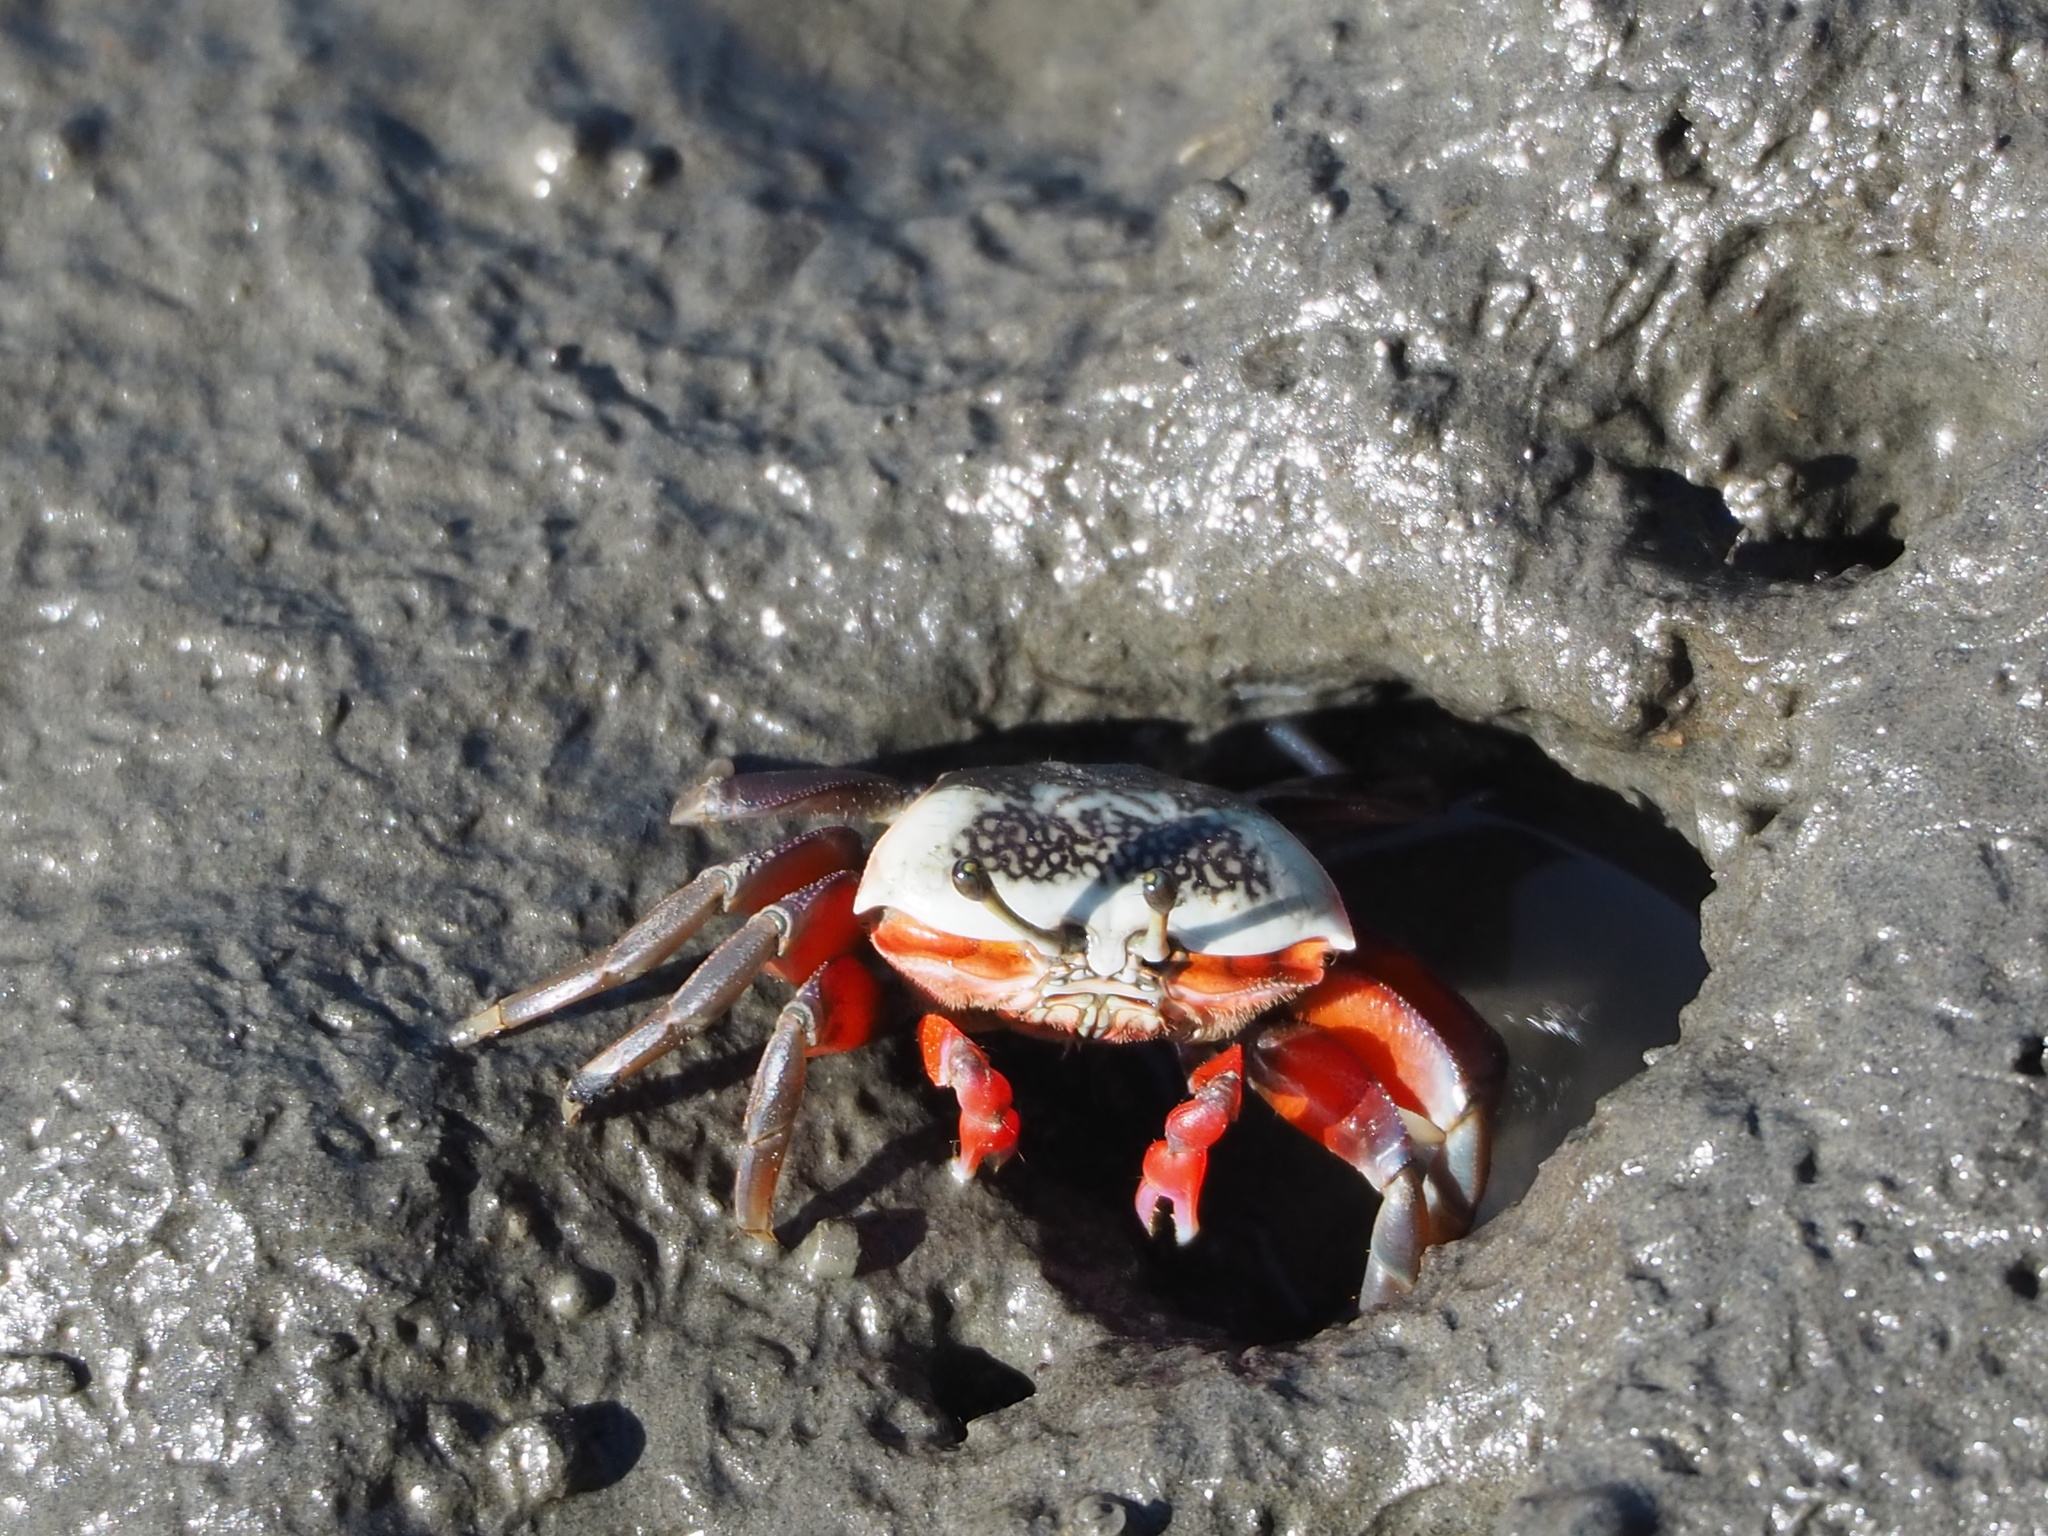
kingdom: Animalia
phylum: Arthropoda
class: Malacostraca
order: Decapoda
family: Ocypodidae
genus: Tubuca
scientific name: Tubuca arcuata
